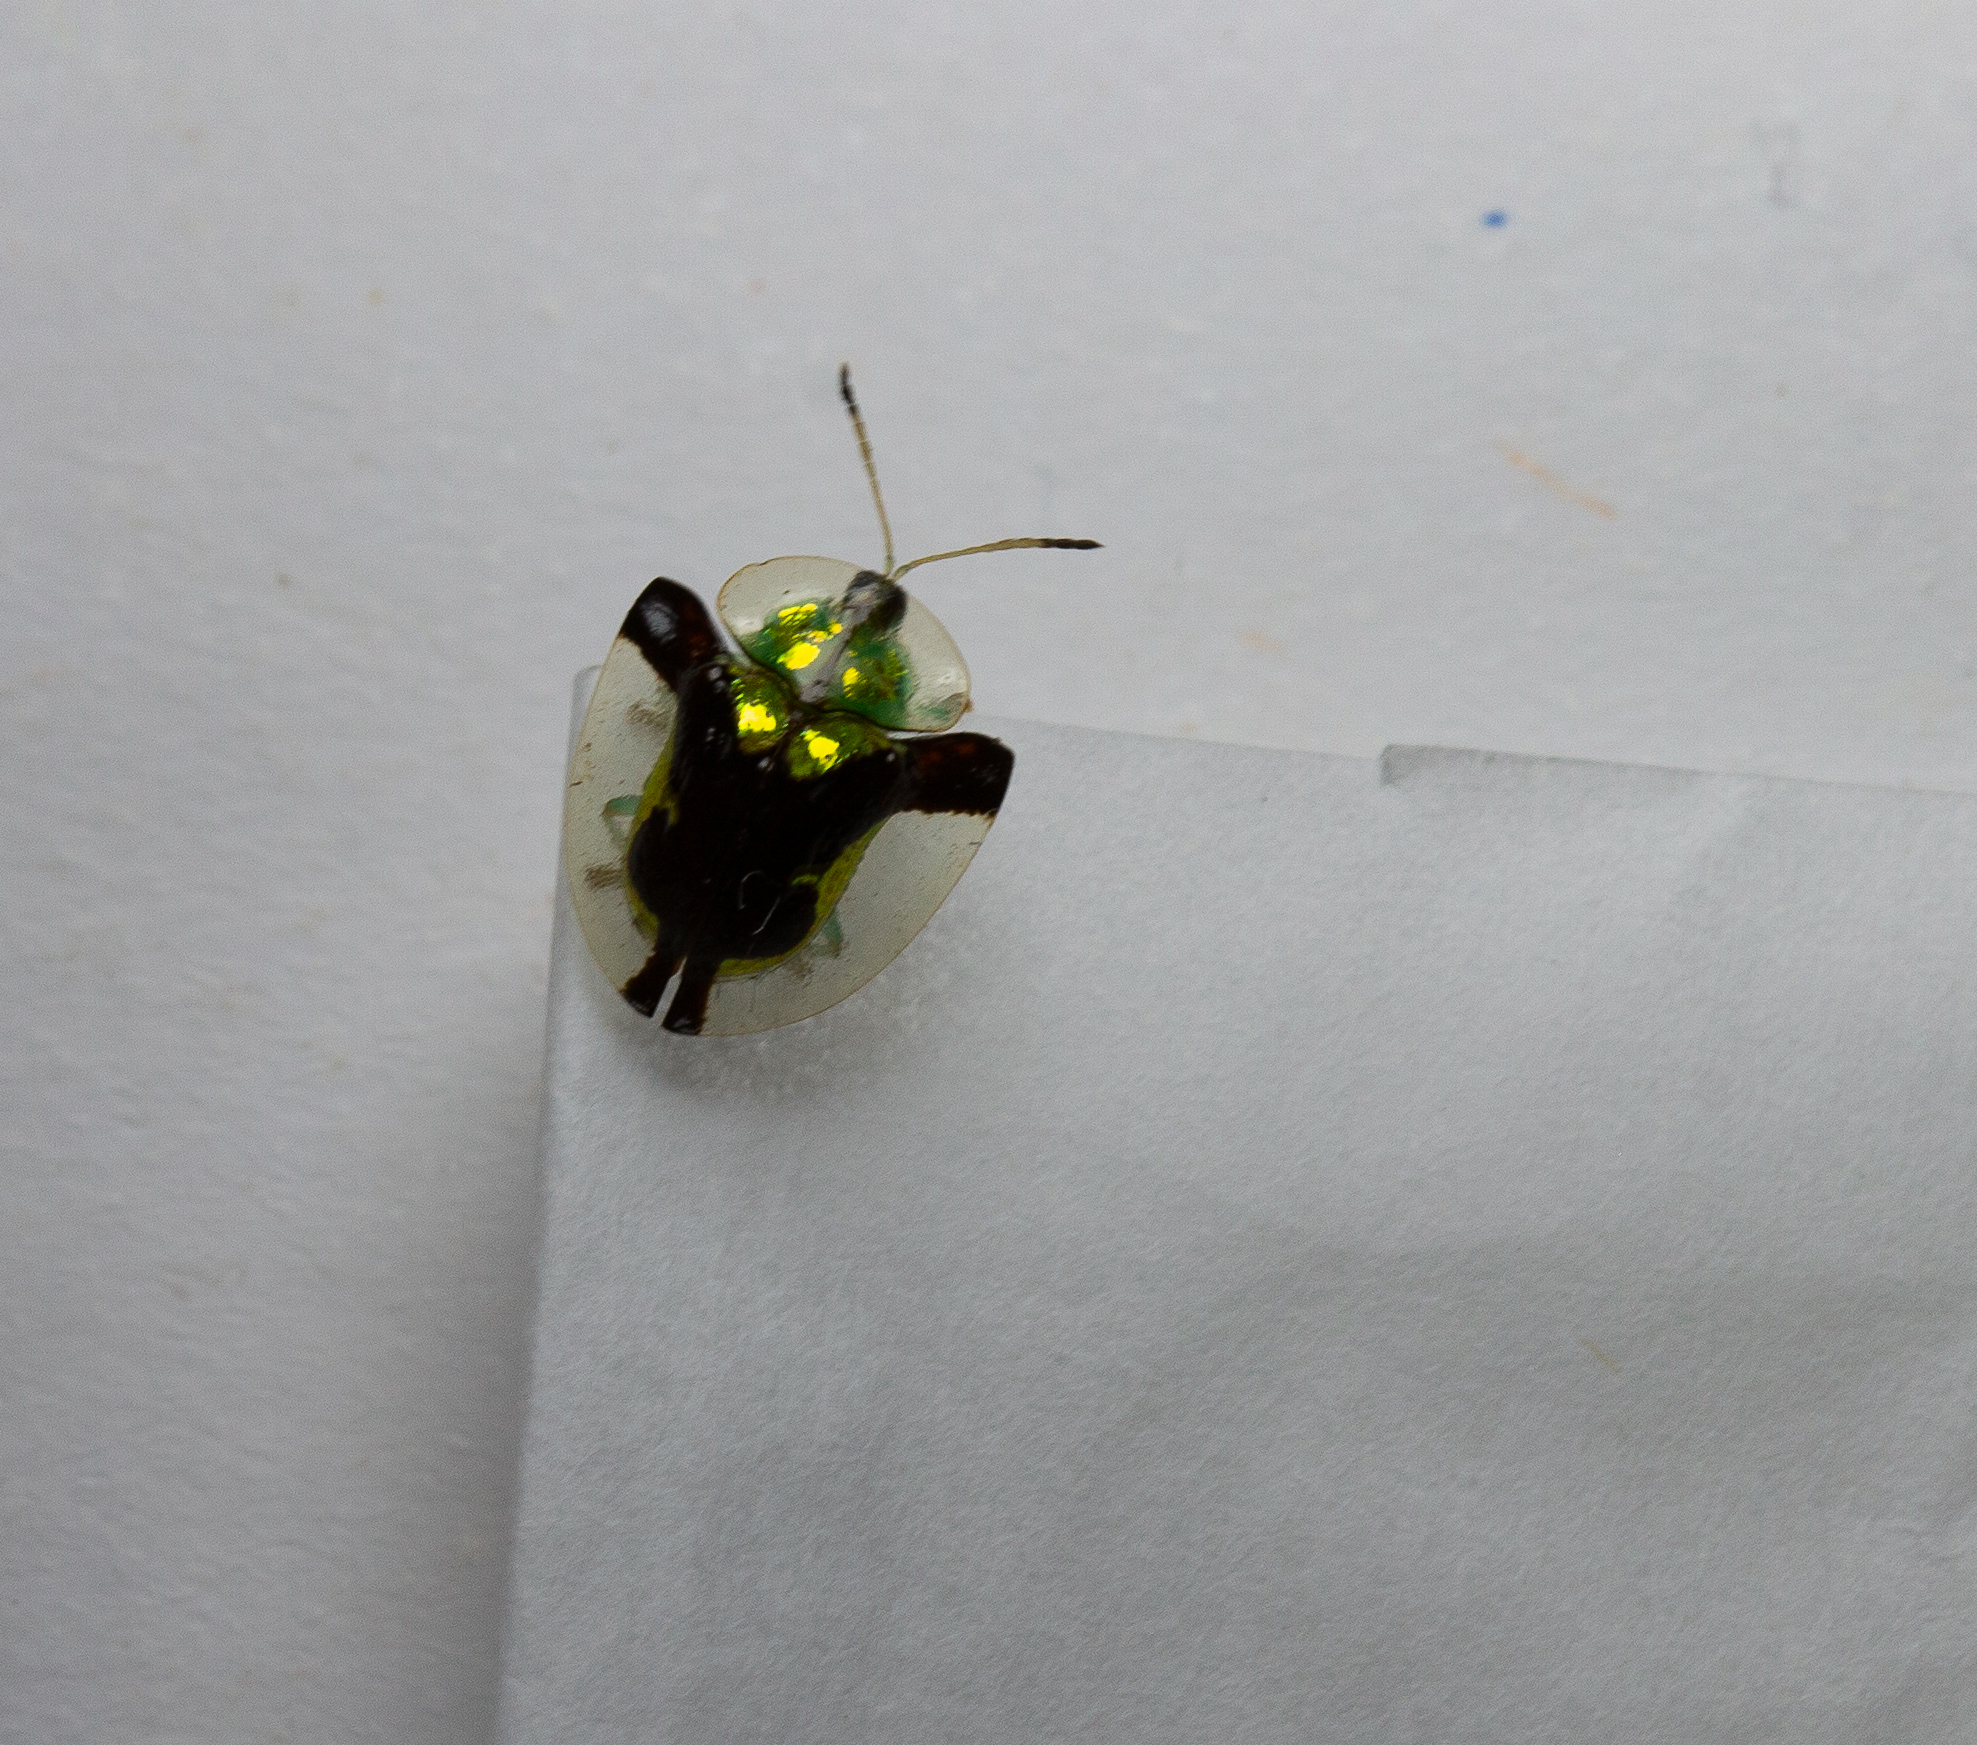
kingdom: Animalia
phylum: Arthropoda
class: Insecta
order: Coleoptera
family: Chrysomelidae
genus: Deloyala
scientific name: Deloyala cruciata
